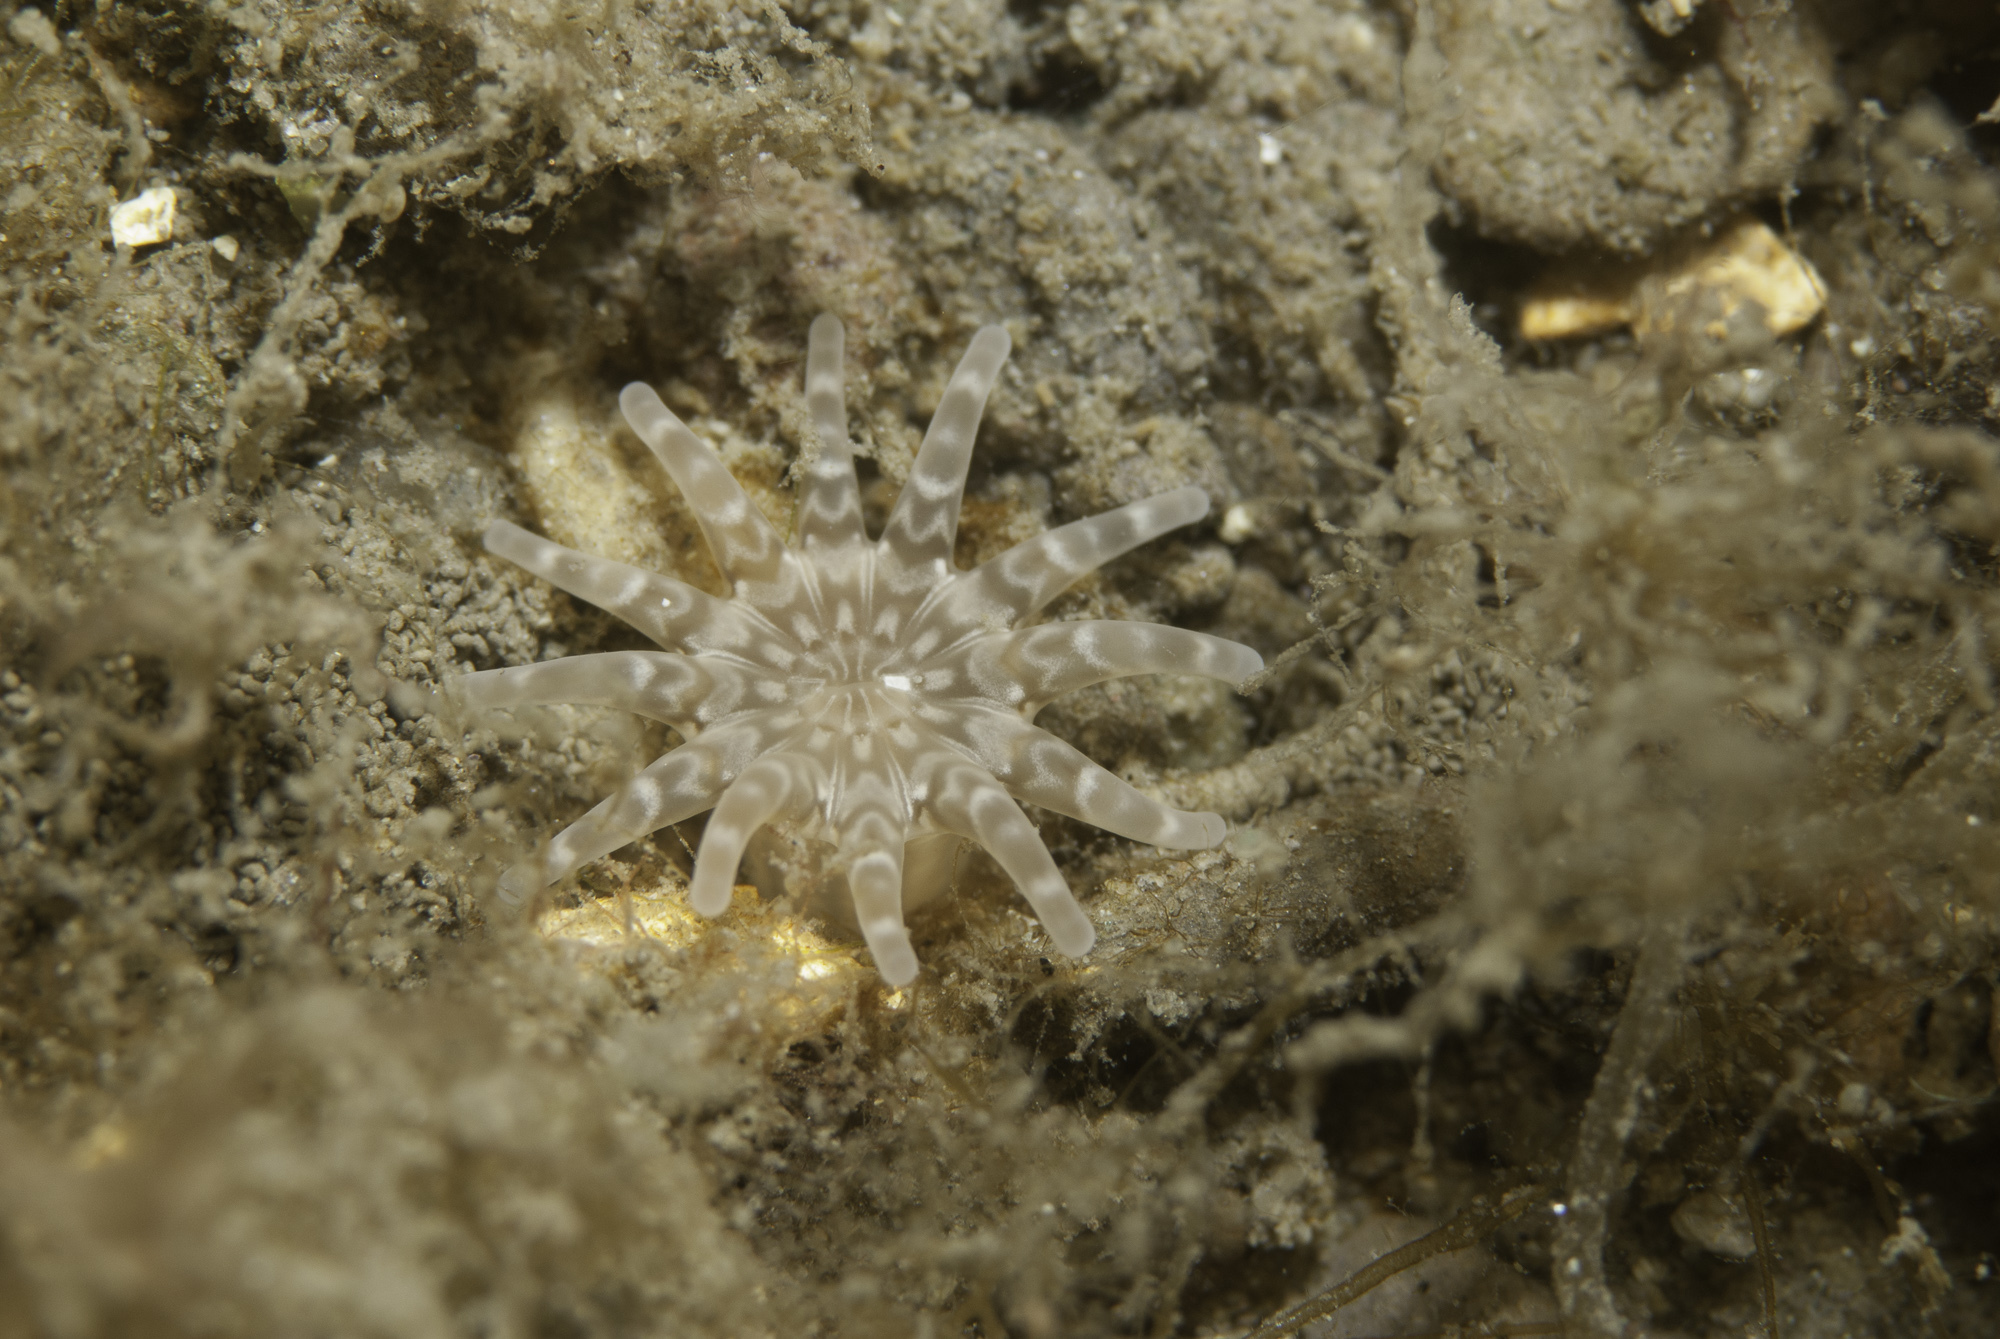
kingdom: Animalia
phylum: Cnidaria
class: Anthozoa
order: Actiniaria
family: Halcampidae
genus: Halcampa
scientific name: Halcampa chrysanthellum
